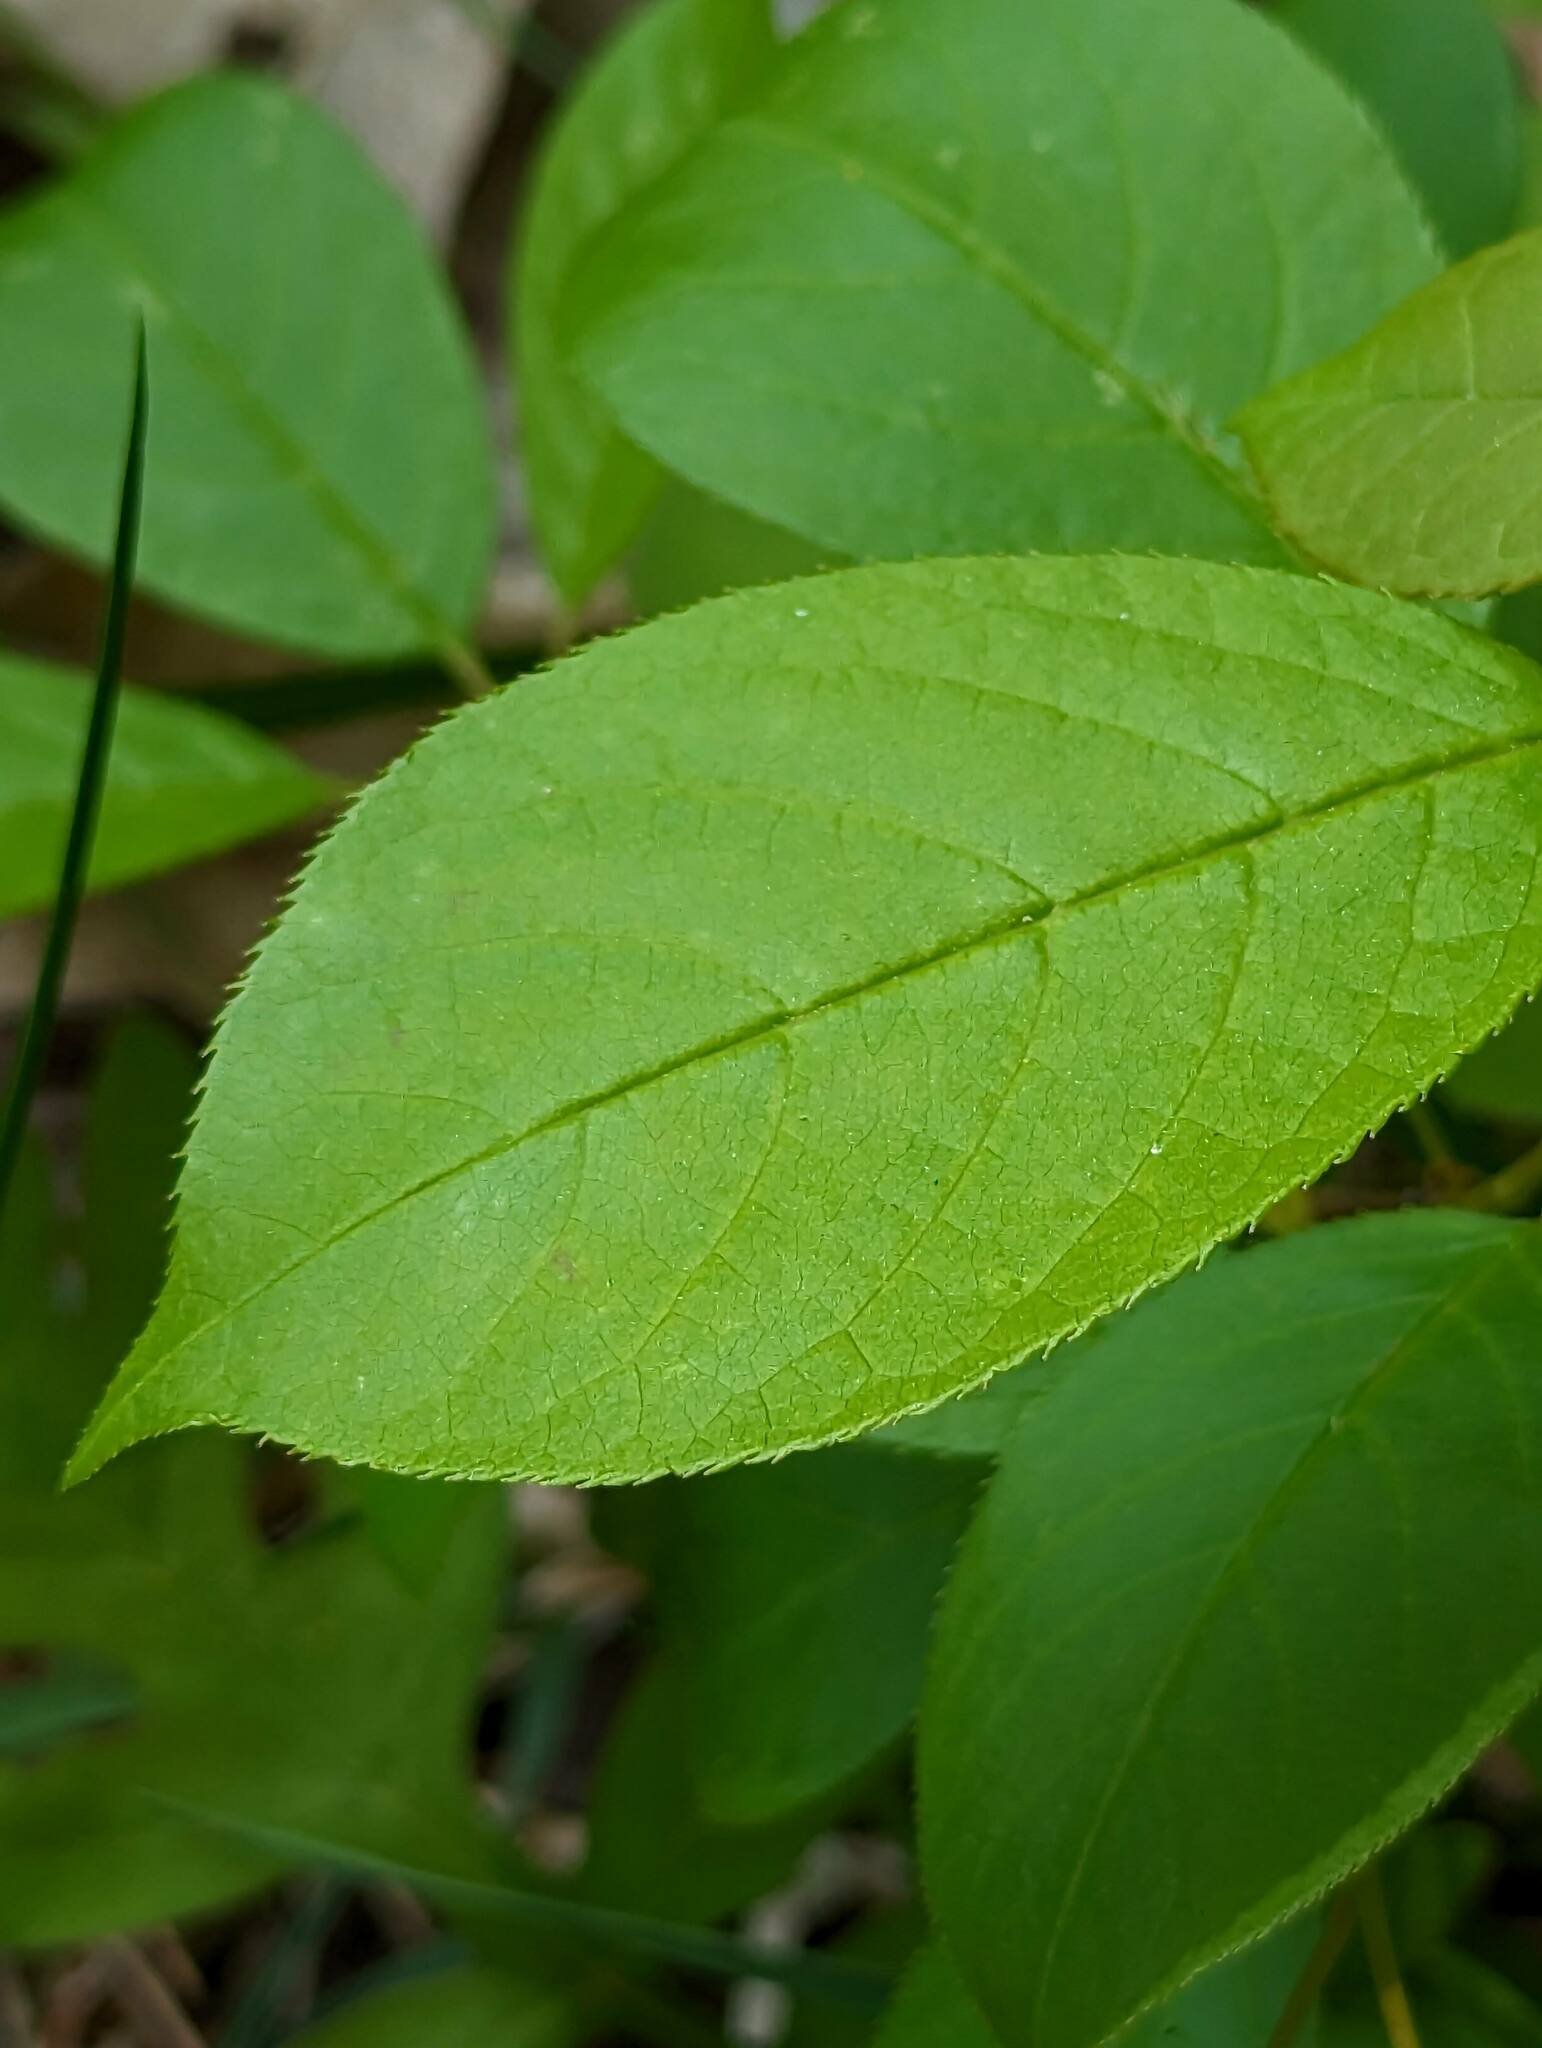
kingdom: Plantae
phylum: Tracheophyta
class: Magnoliopsida
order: Rosales
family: Rosaceae
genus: Prunus
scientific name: Prunus virginiana
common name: Chokecherry
